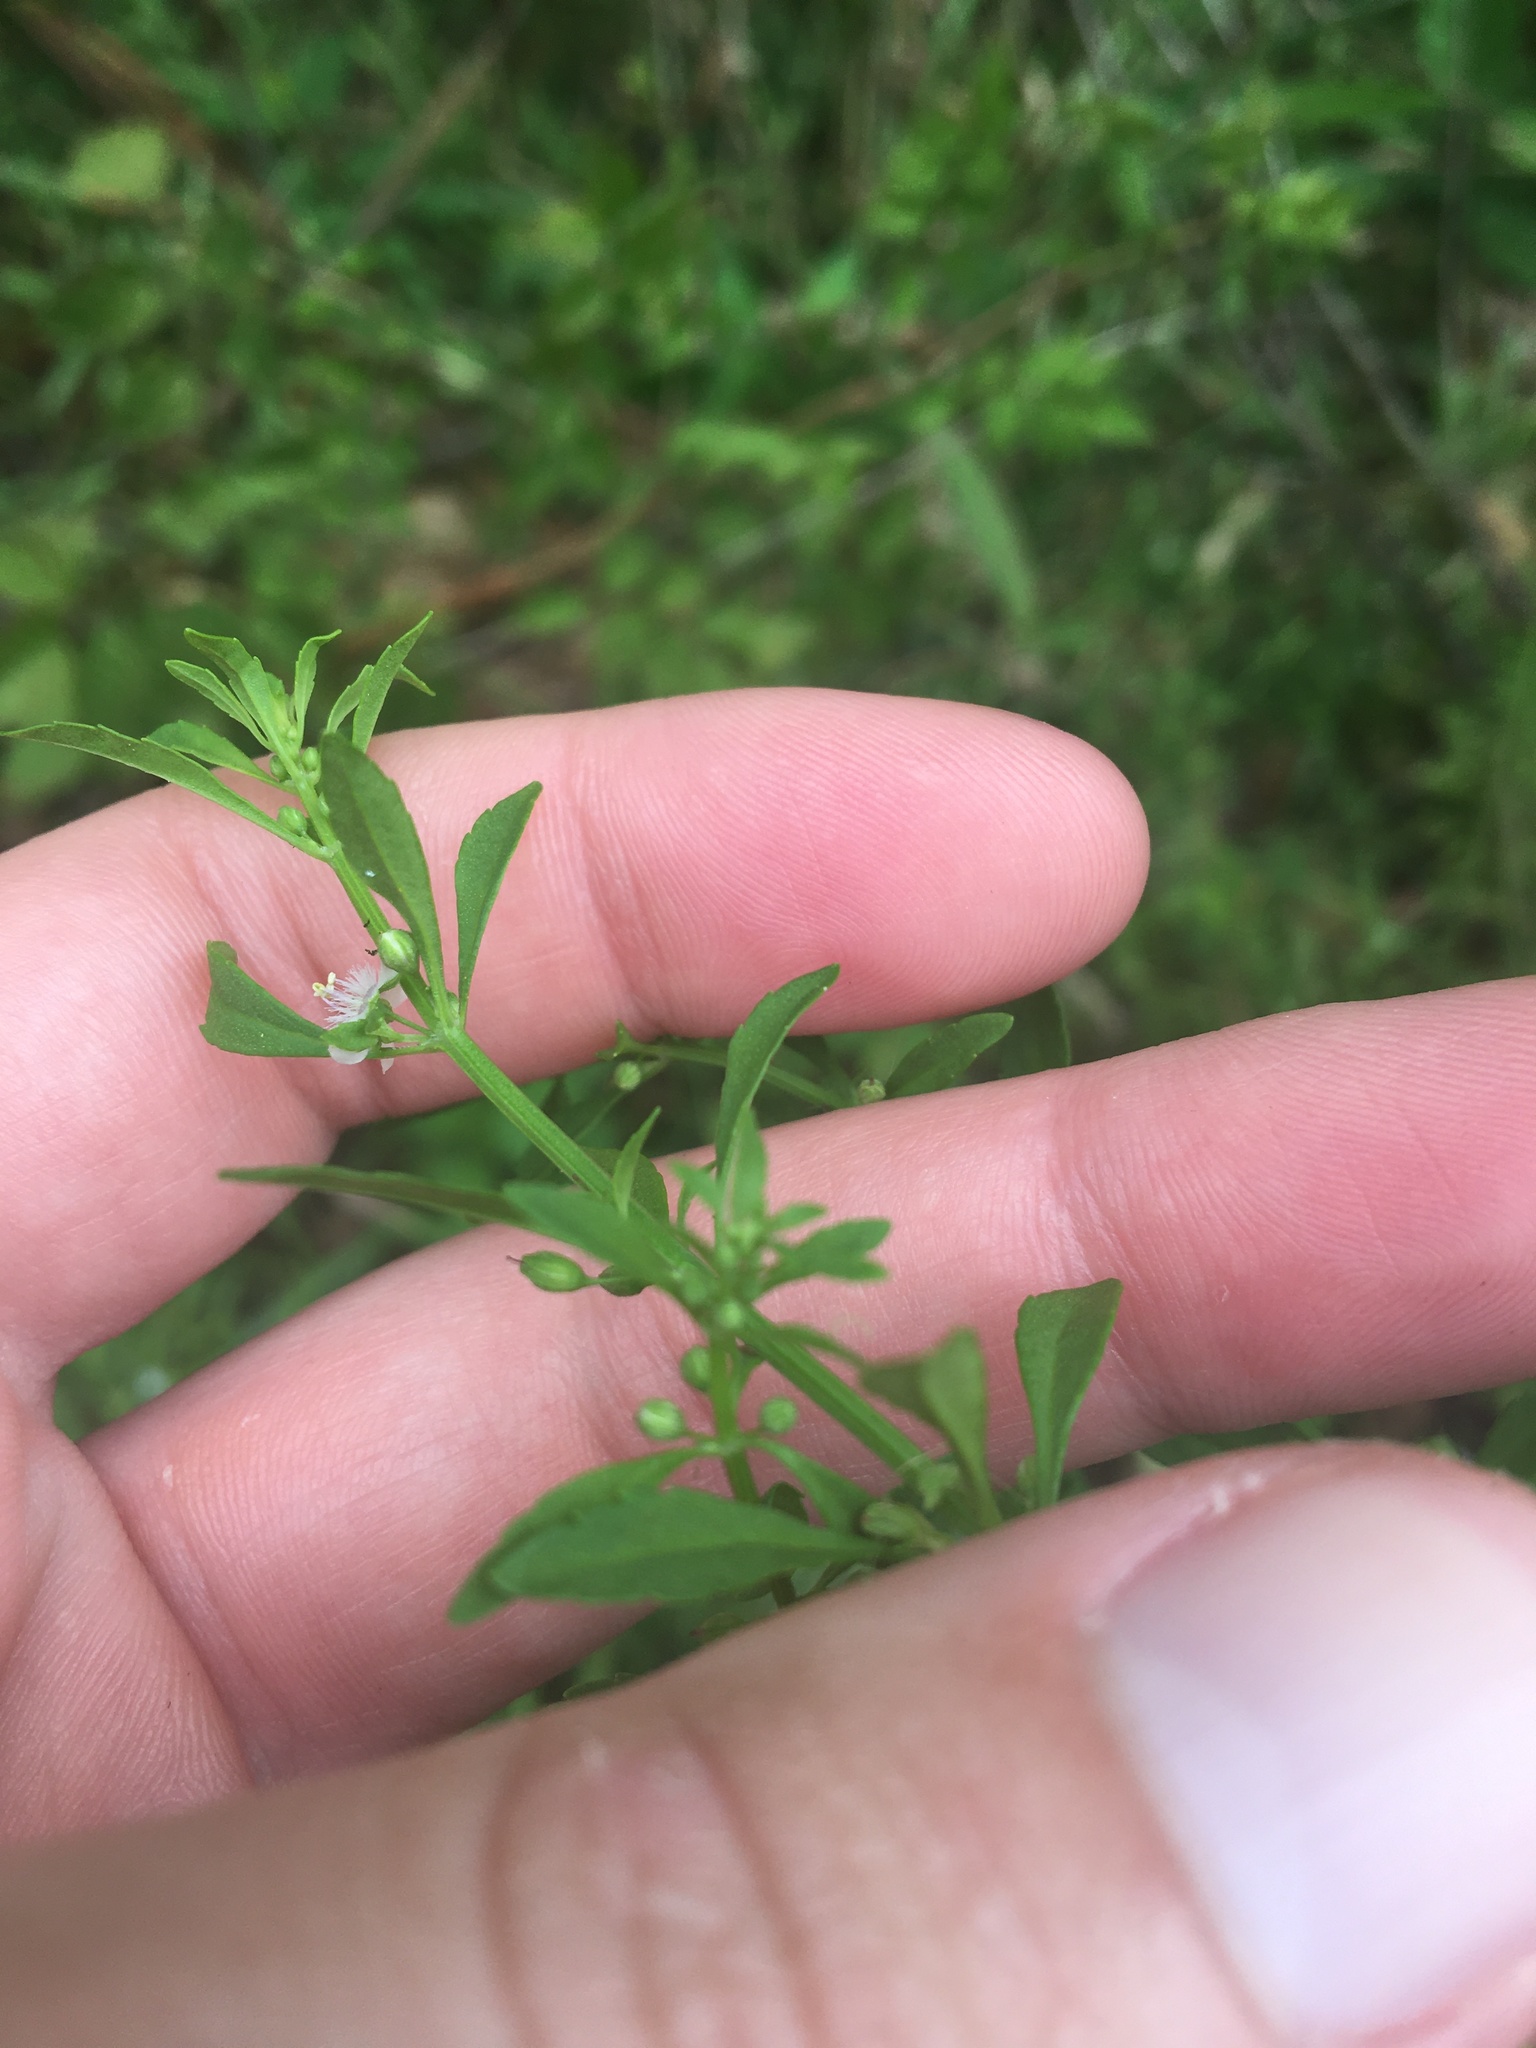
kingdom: Plantae
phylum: Tracheophyta
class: Magnoliopsida
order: Lamiales
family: Plantaginaceae
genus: Scoparia
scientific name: Scoparia dulcis
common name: Scoparia-weed
